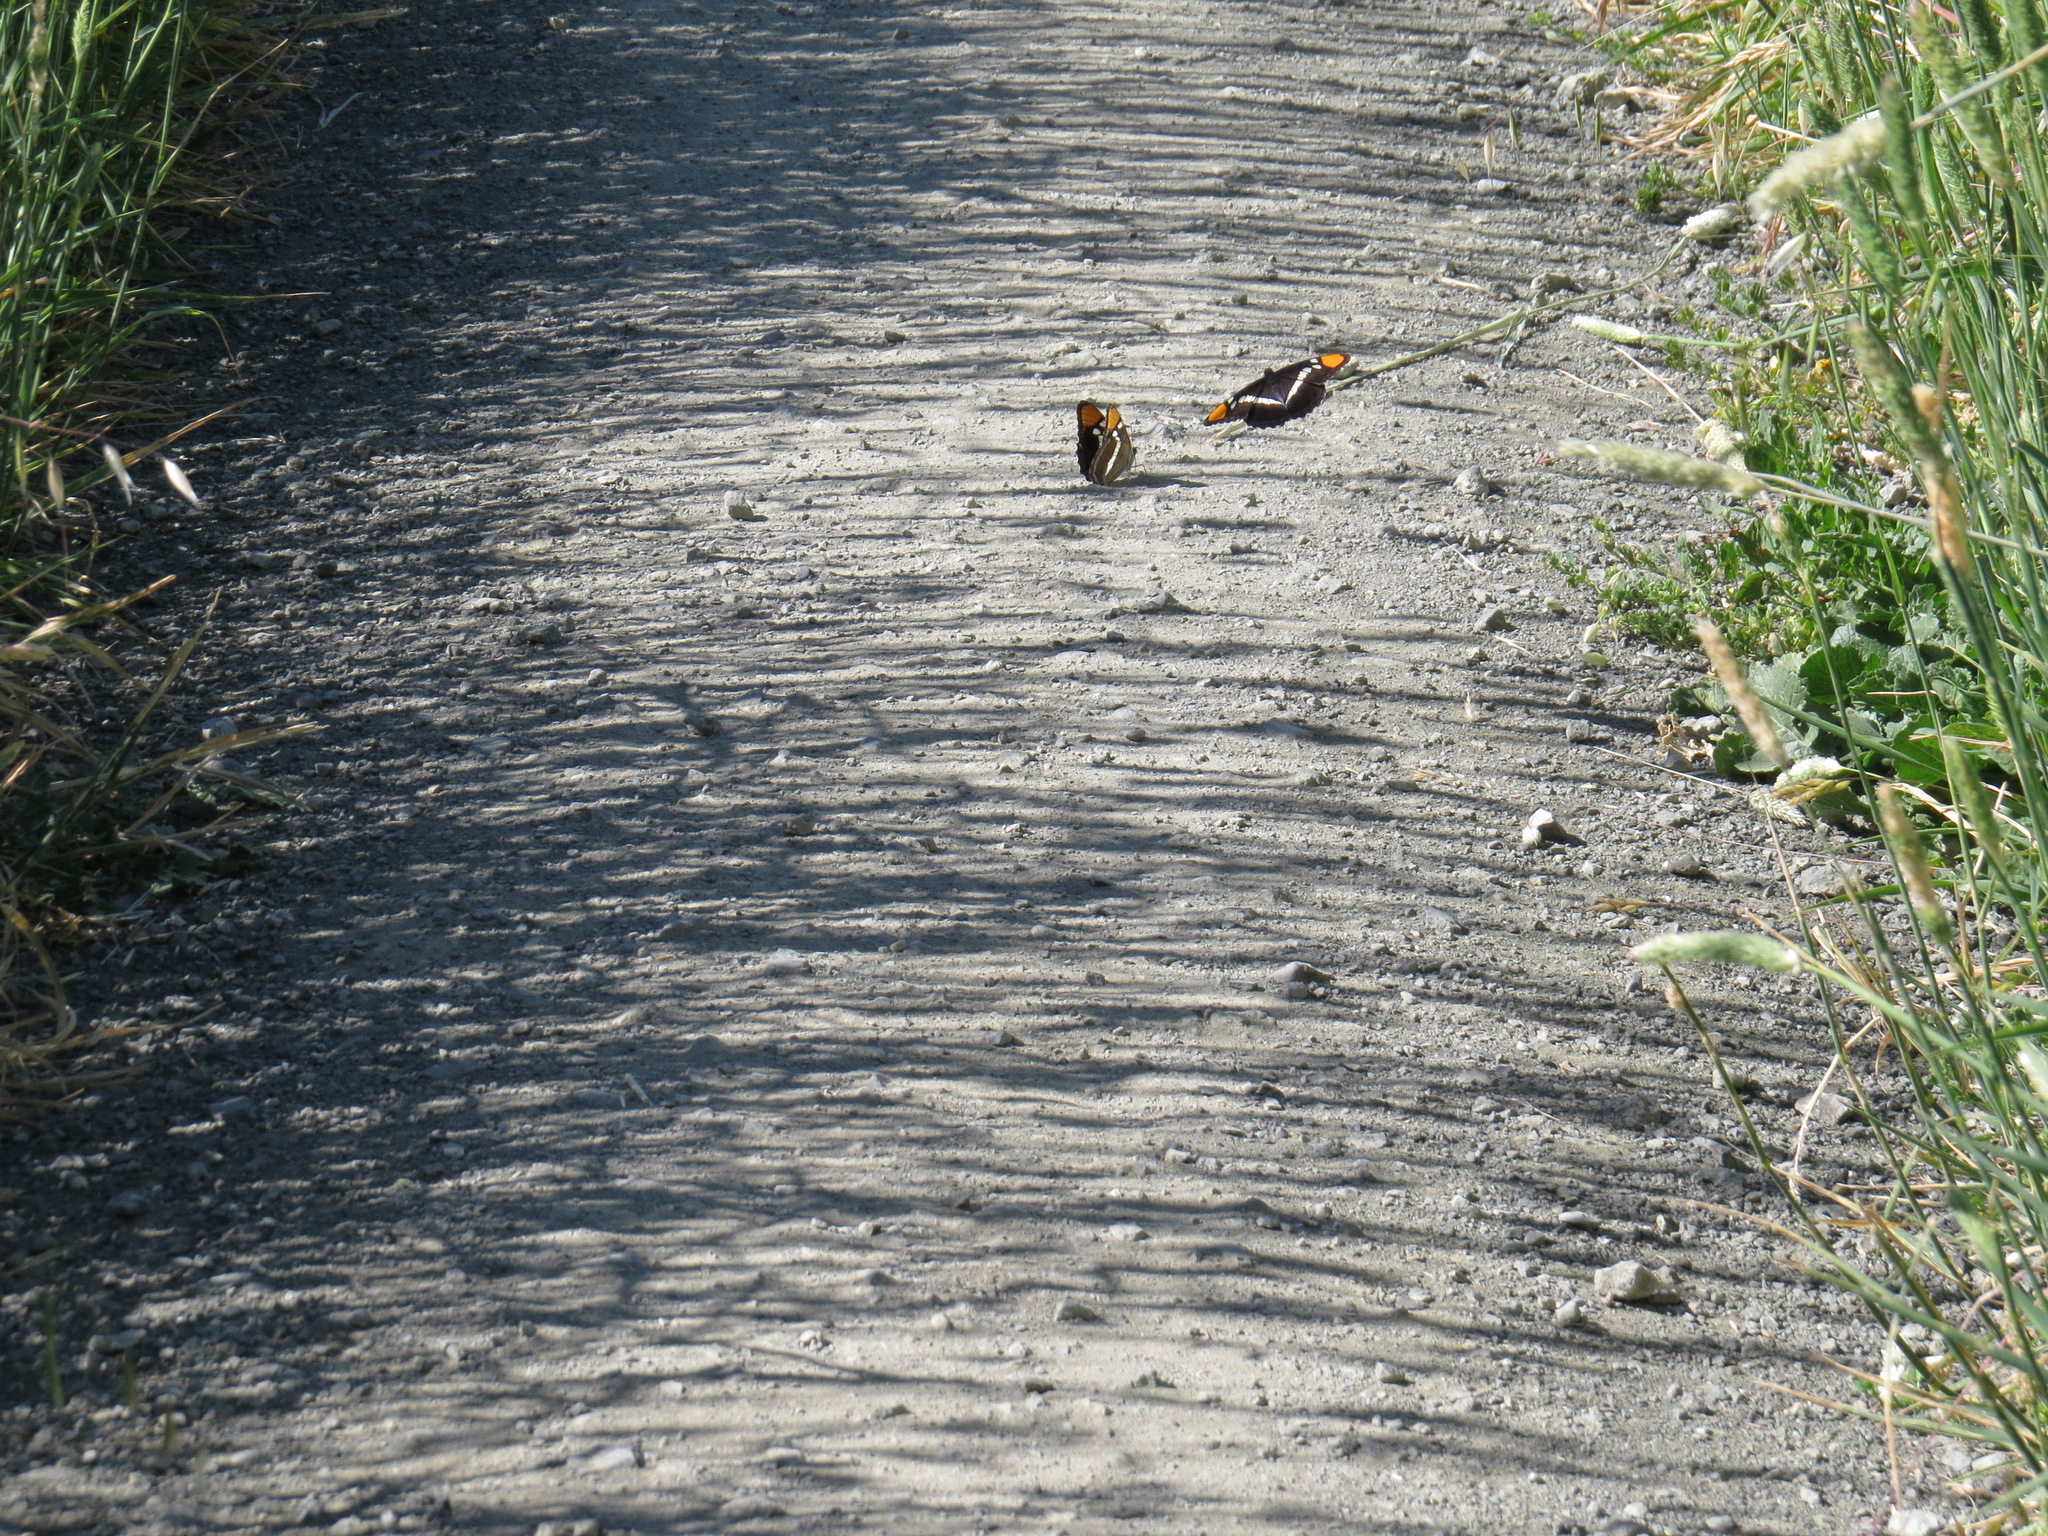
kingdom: Animalia
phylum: Arthropoda
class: Insecta
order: Lepidoptera
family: Nymphalidae
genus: Limenitis
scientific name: Limenitis bredowii
